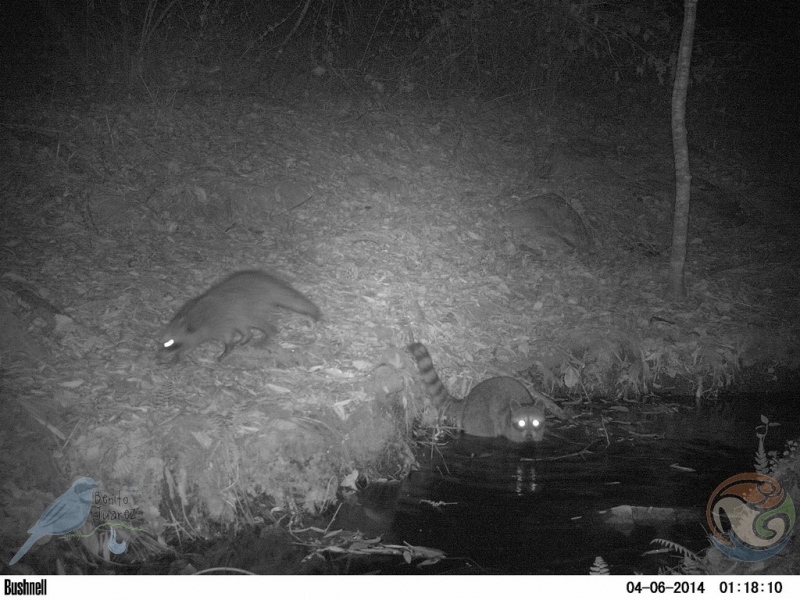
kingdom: Animalia
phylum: Chordata
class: Mammalia
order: Carnivora
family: Procyonidae
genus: Procyon
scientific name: Procyon lotor
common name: Raccoon
